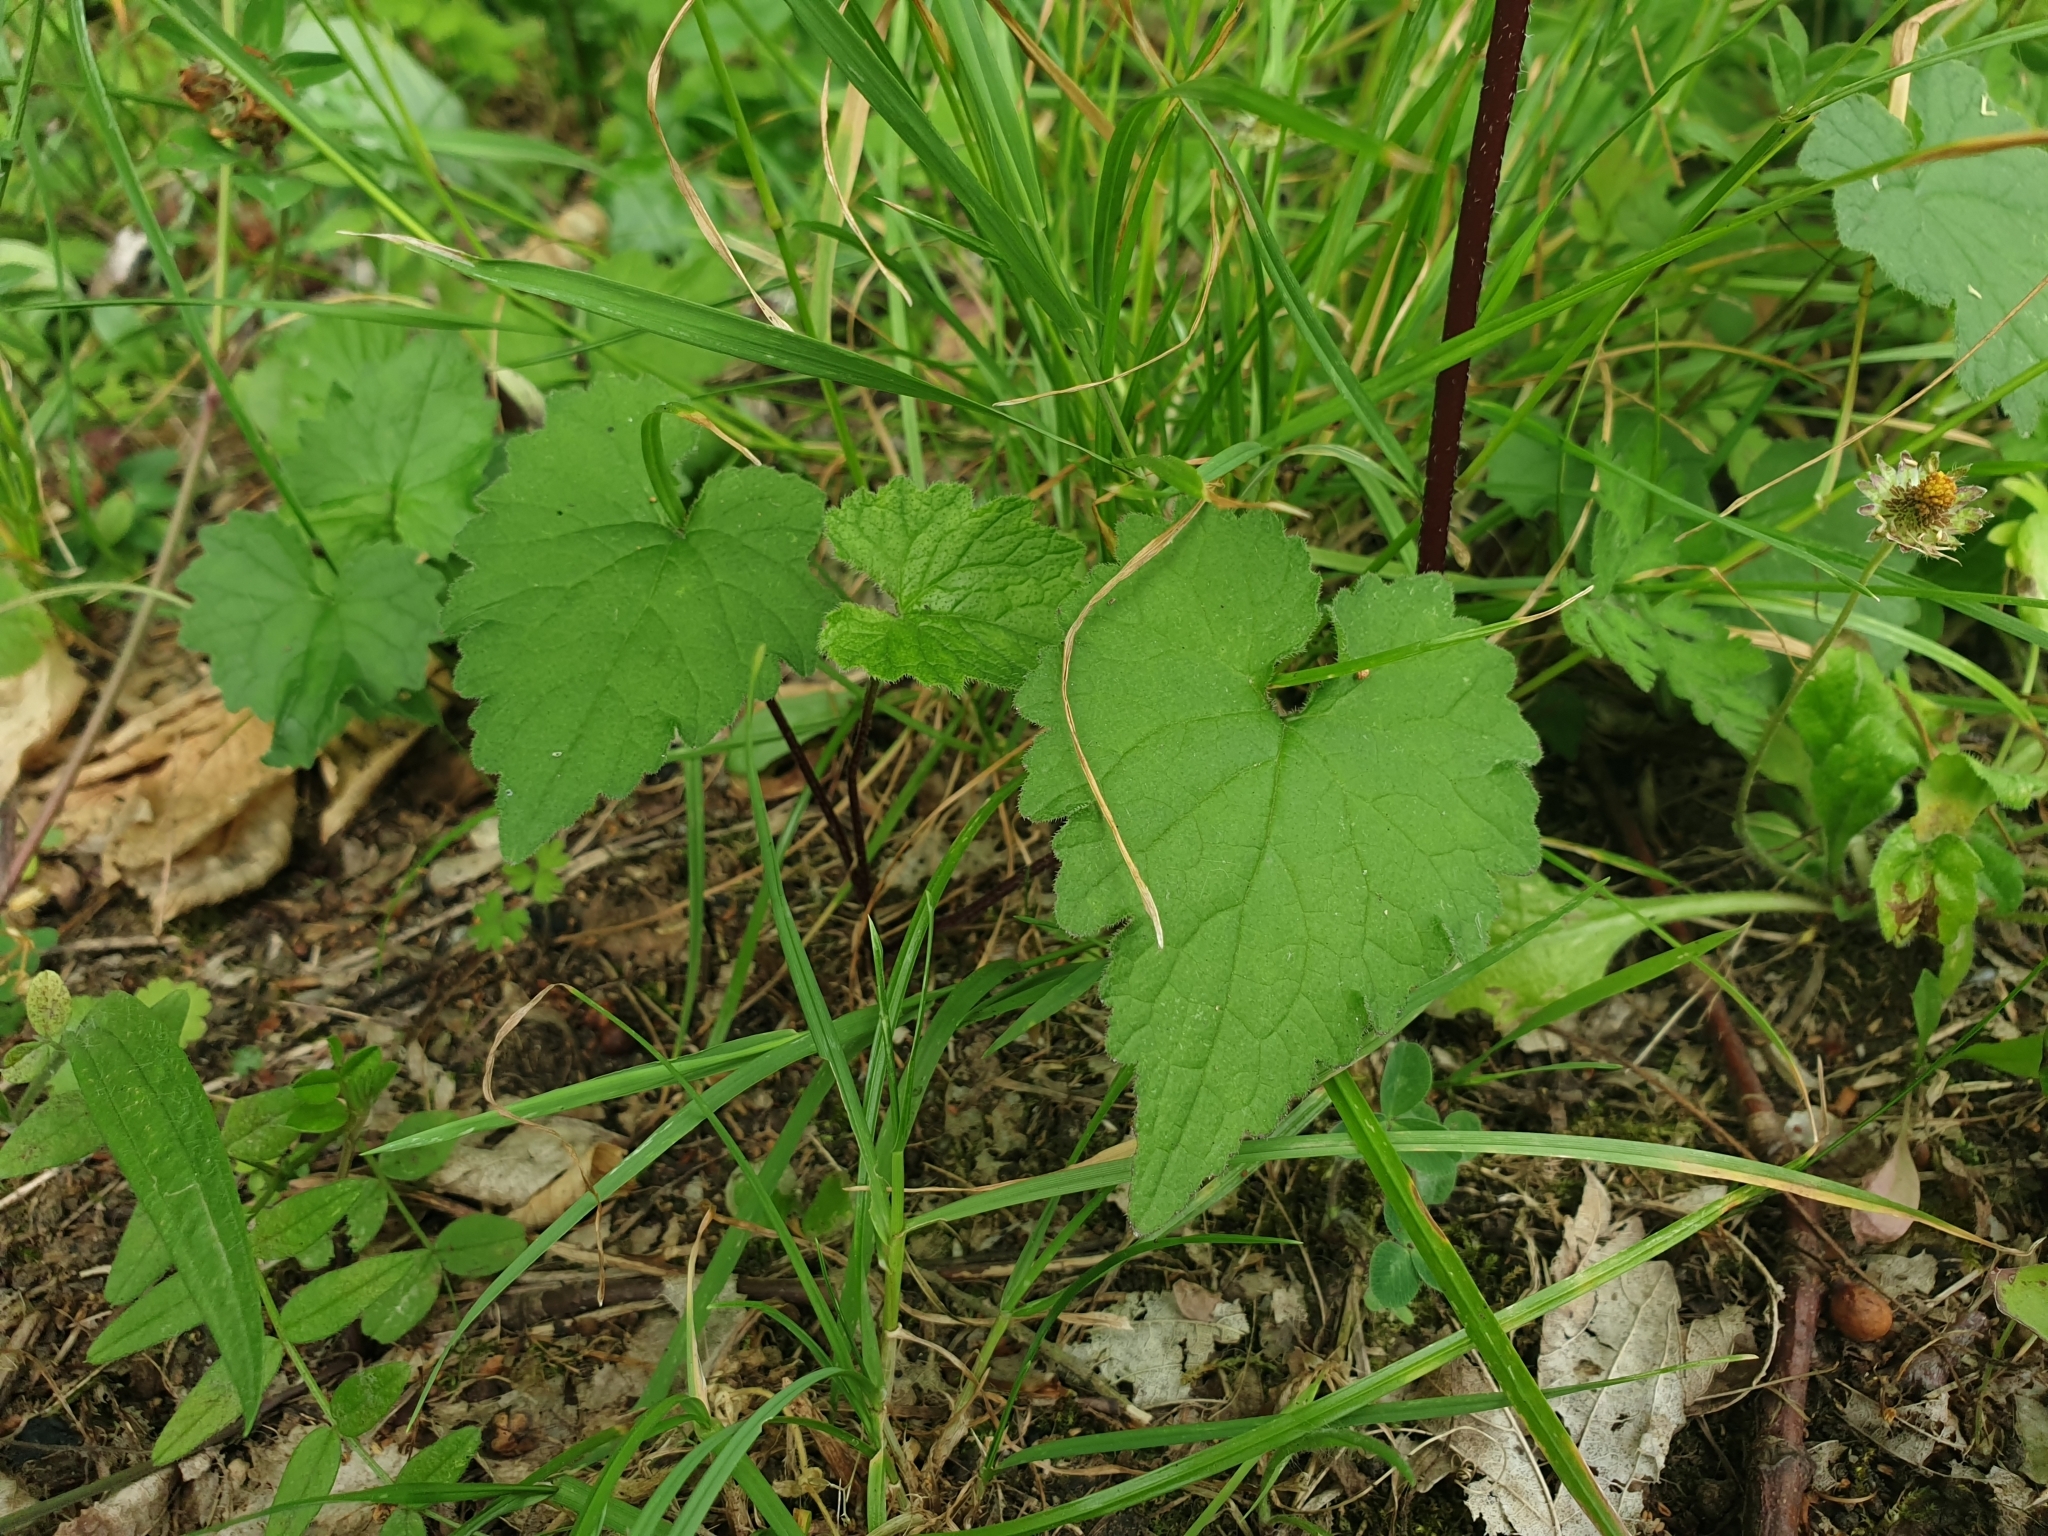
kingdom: Plantae
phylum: Tracheophyta
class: Magnoliopsida
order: Asterales
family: Campanulaceae
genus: Campanula
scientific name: Campanula trachelium
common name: Nettle-leaved bellflower
